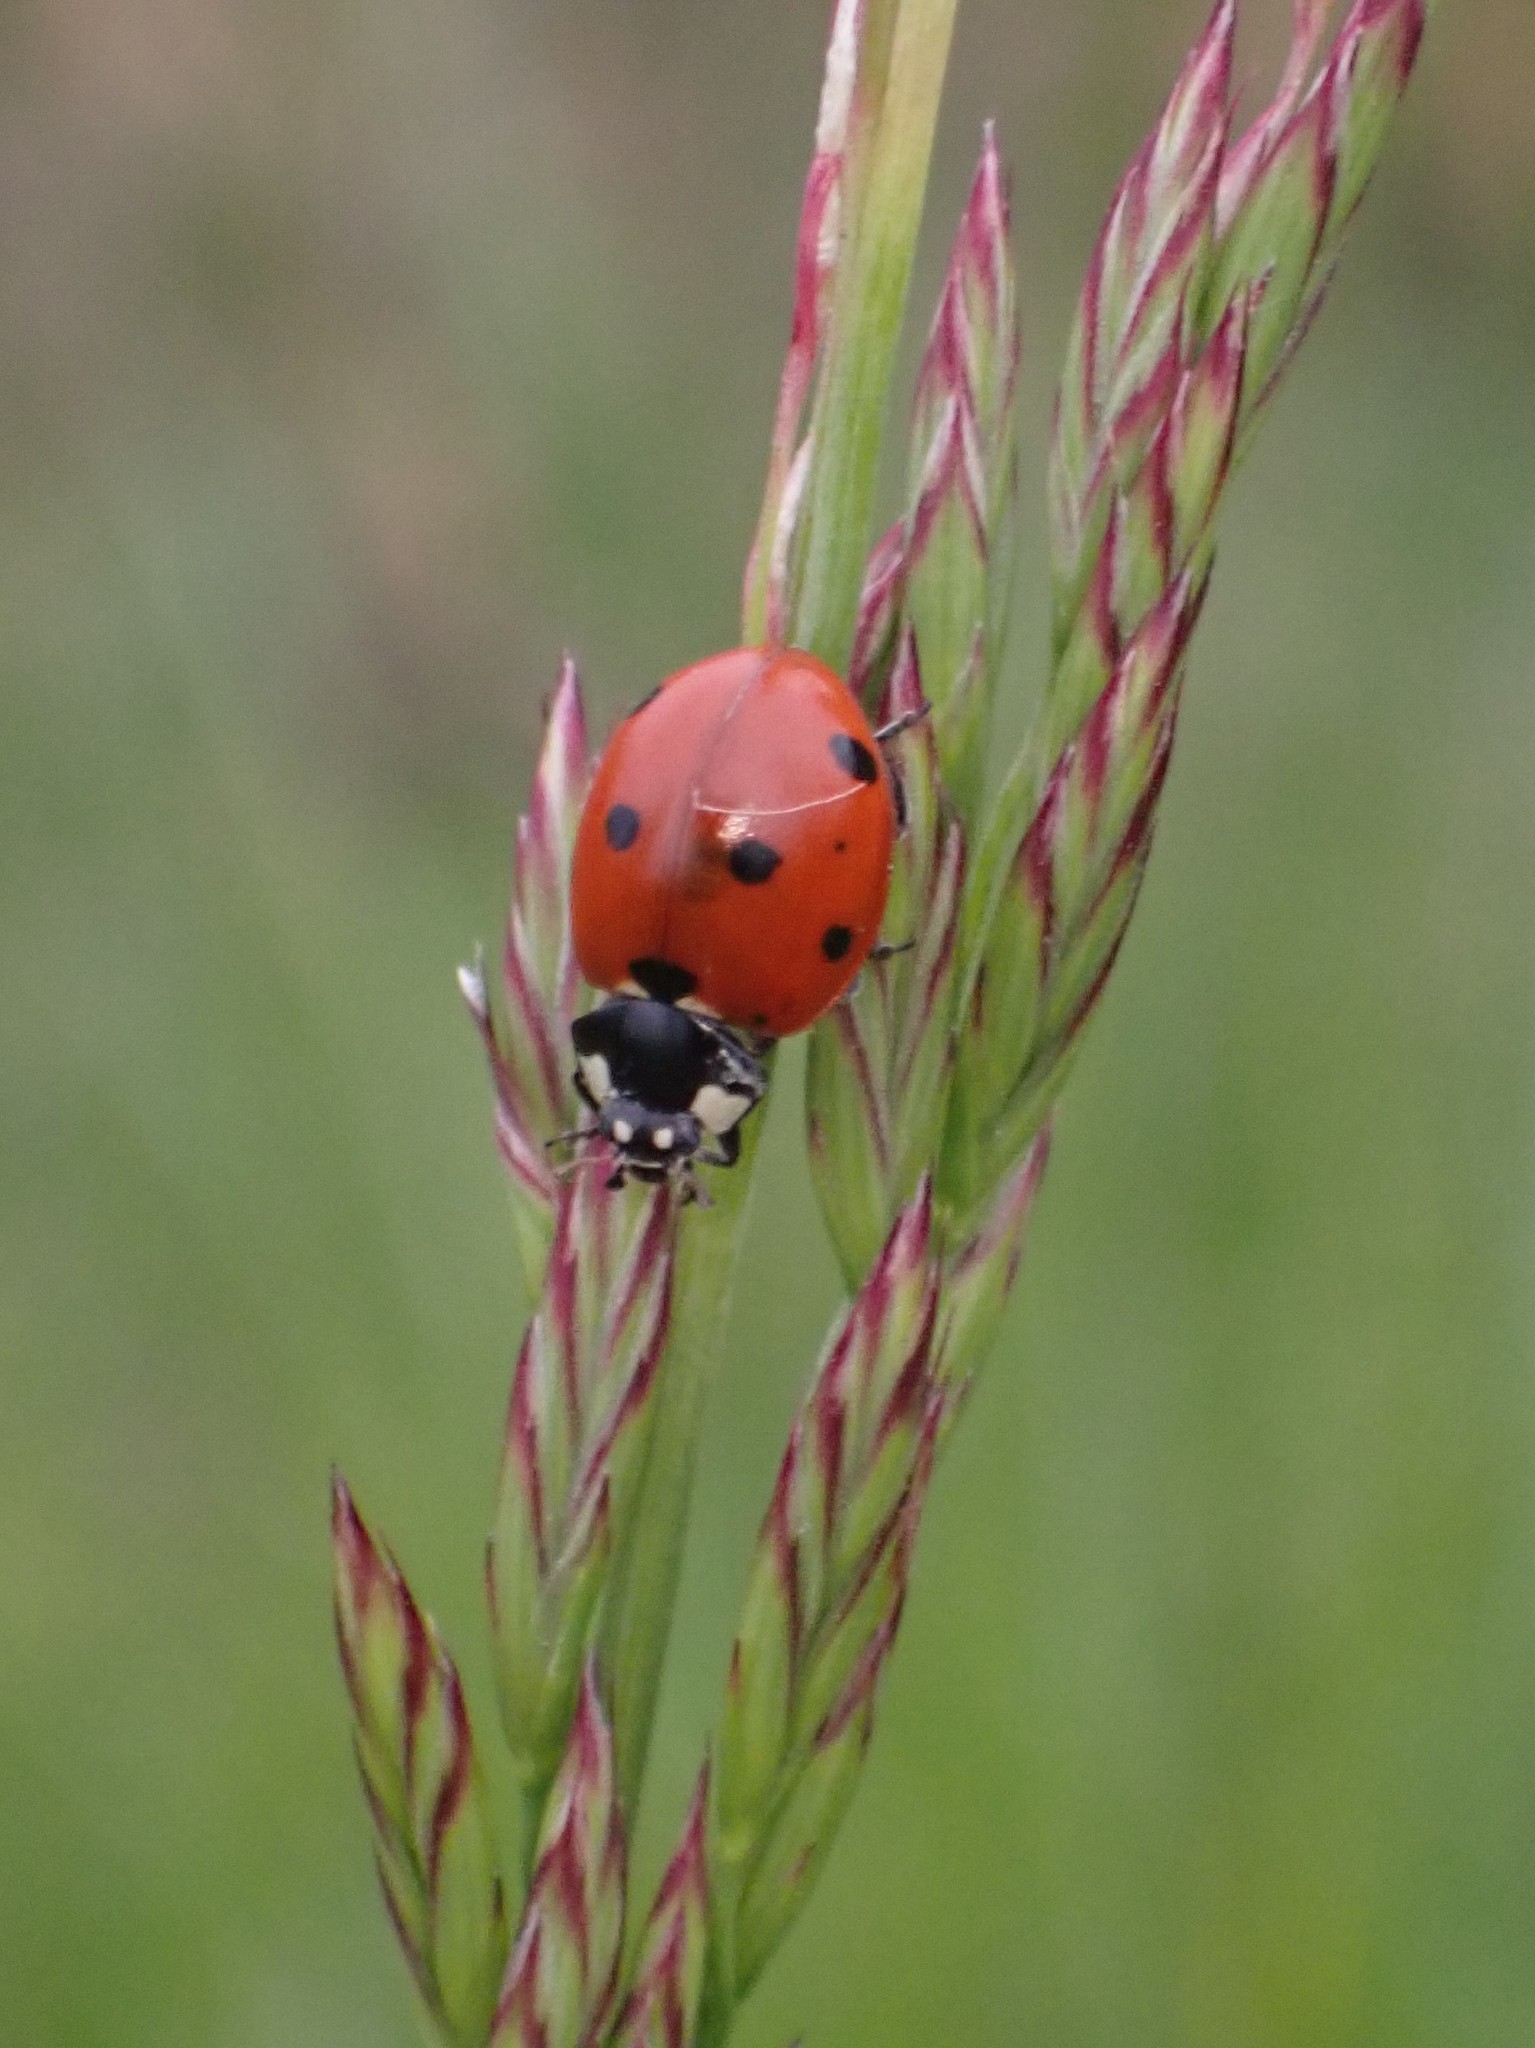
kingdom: Animalia
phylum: Arthropoda
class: Insecta
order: Coleoptera
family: Coccinellidae
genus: Coccinella
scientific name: Coccinella septempunctata
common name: Sevenspotted lady beetle
